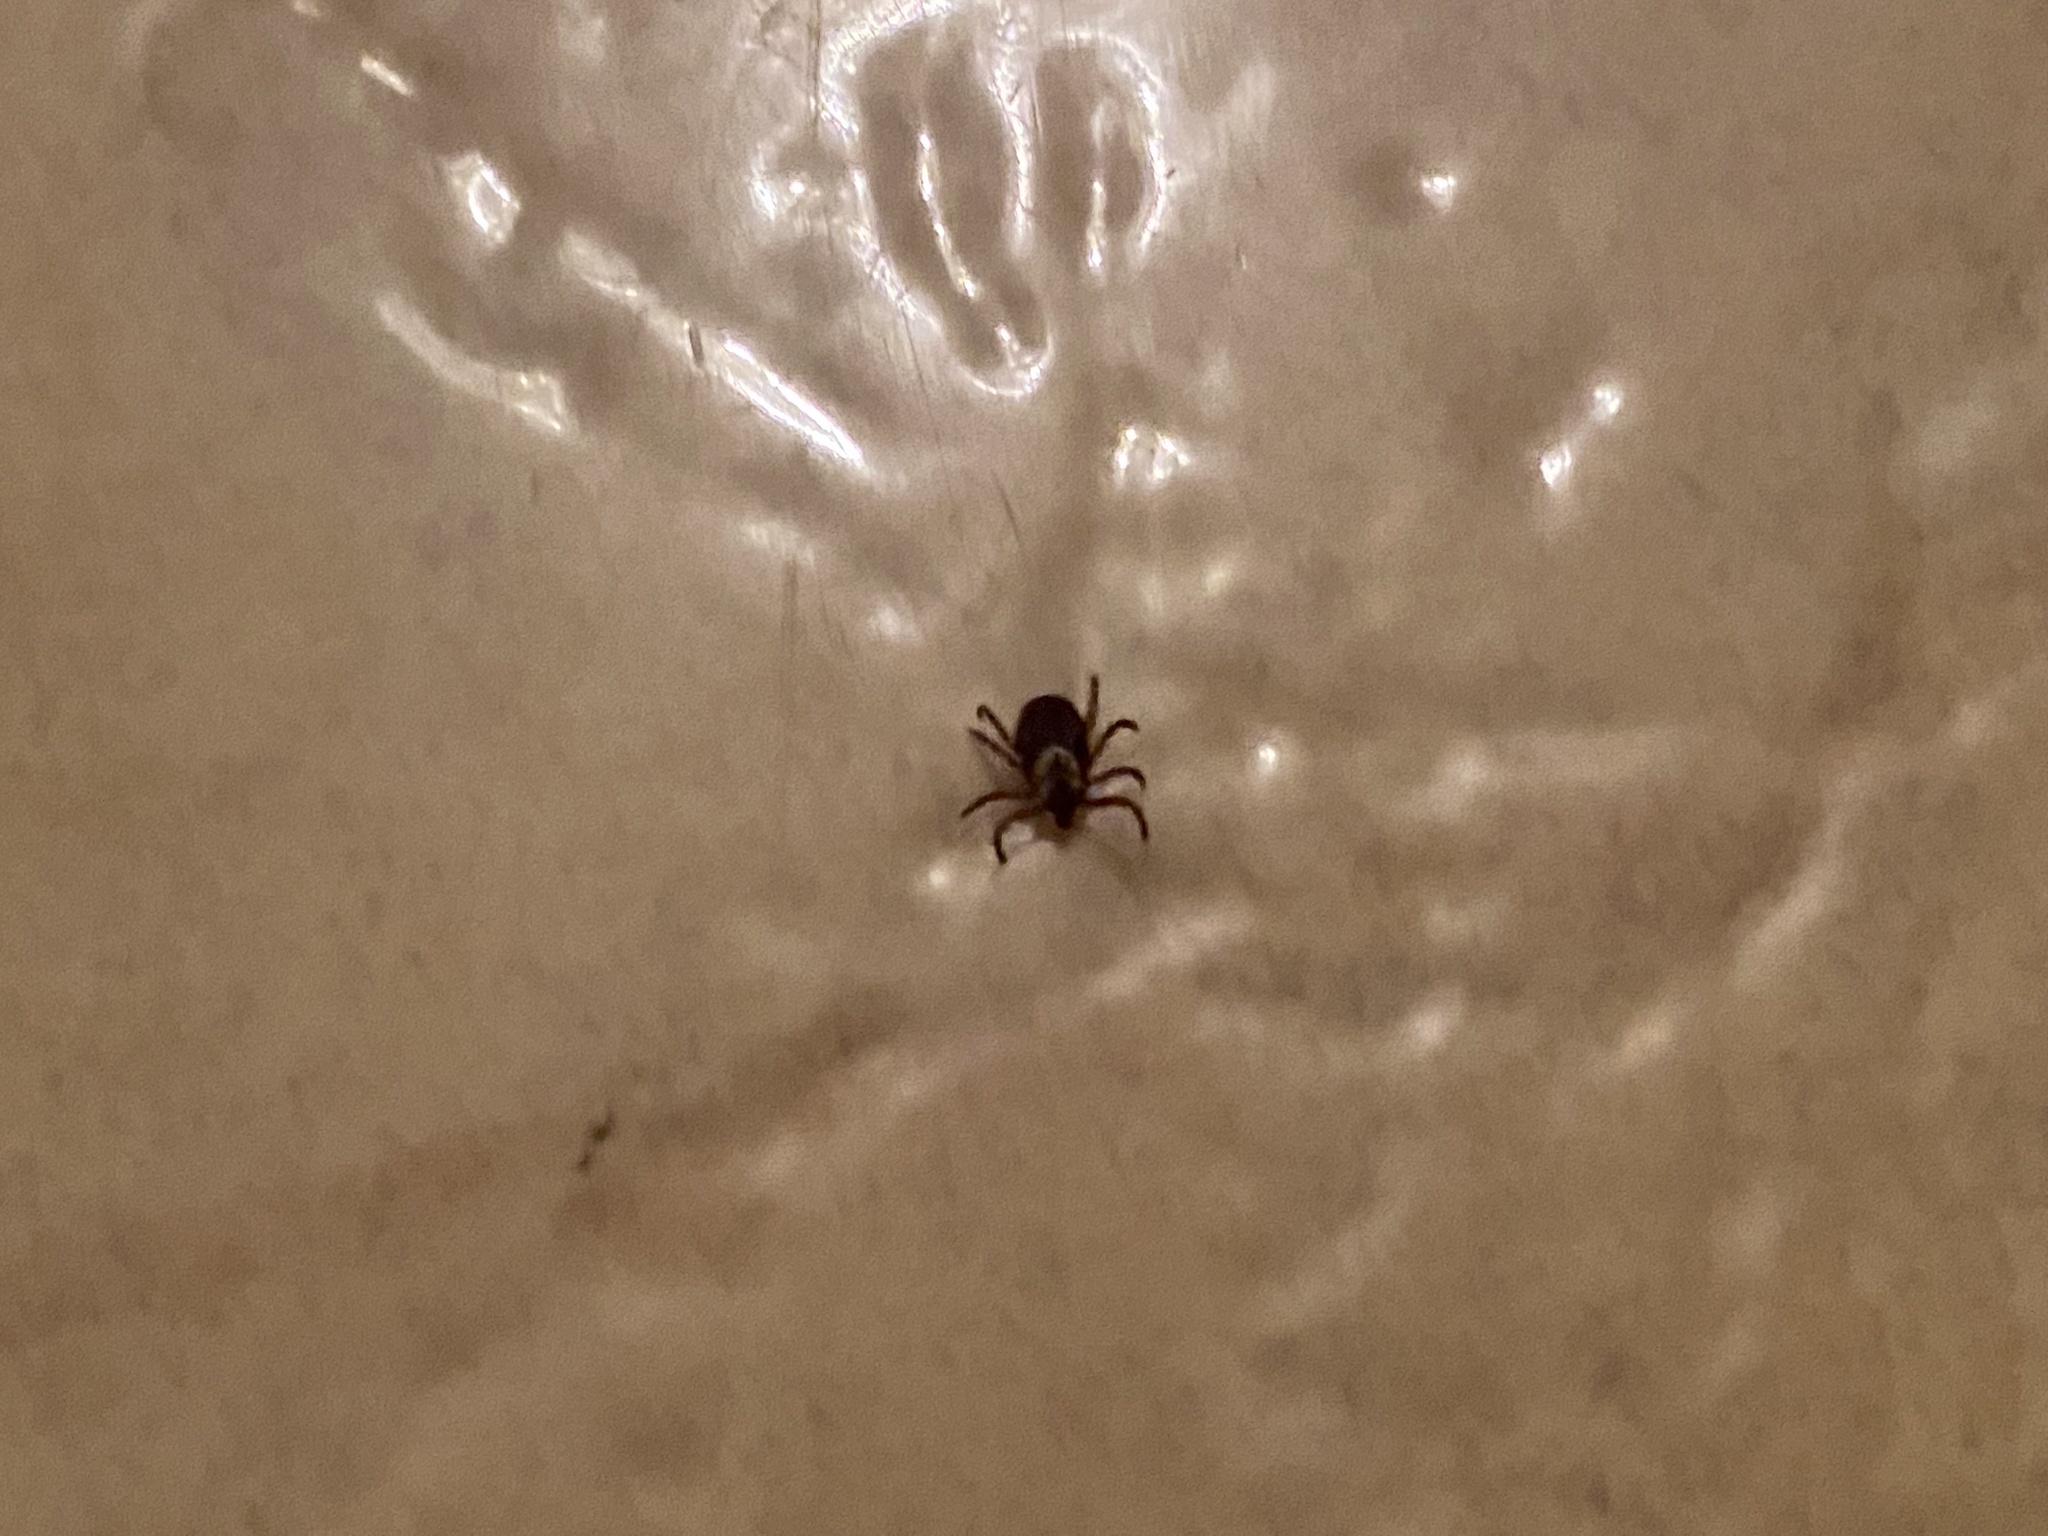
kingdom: Animalia
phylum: Arthropoda
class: Arachnida
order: Ixodida
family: Ixodidae
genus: Dermacentor
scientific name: Dermacentor variabilis
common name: American dog tick
